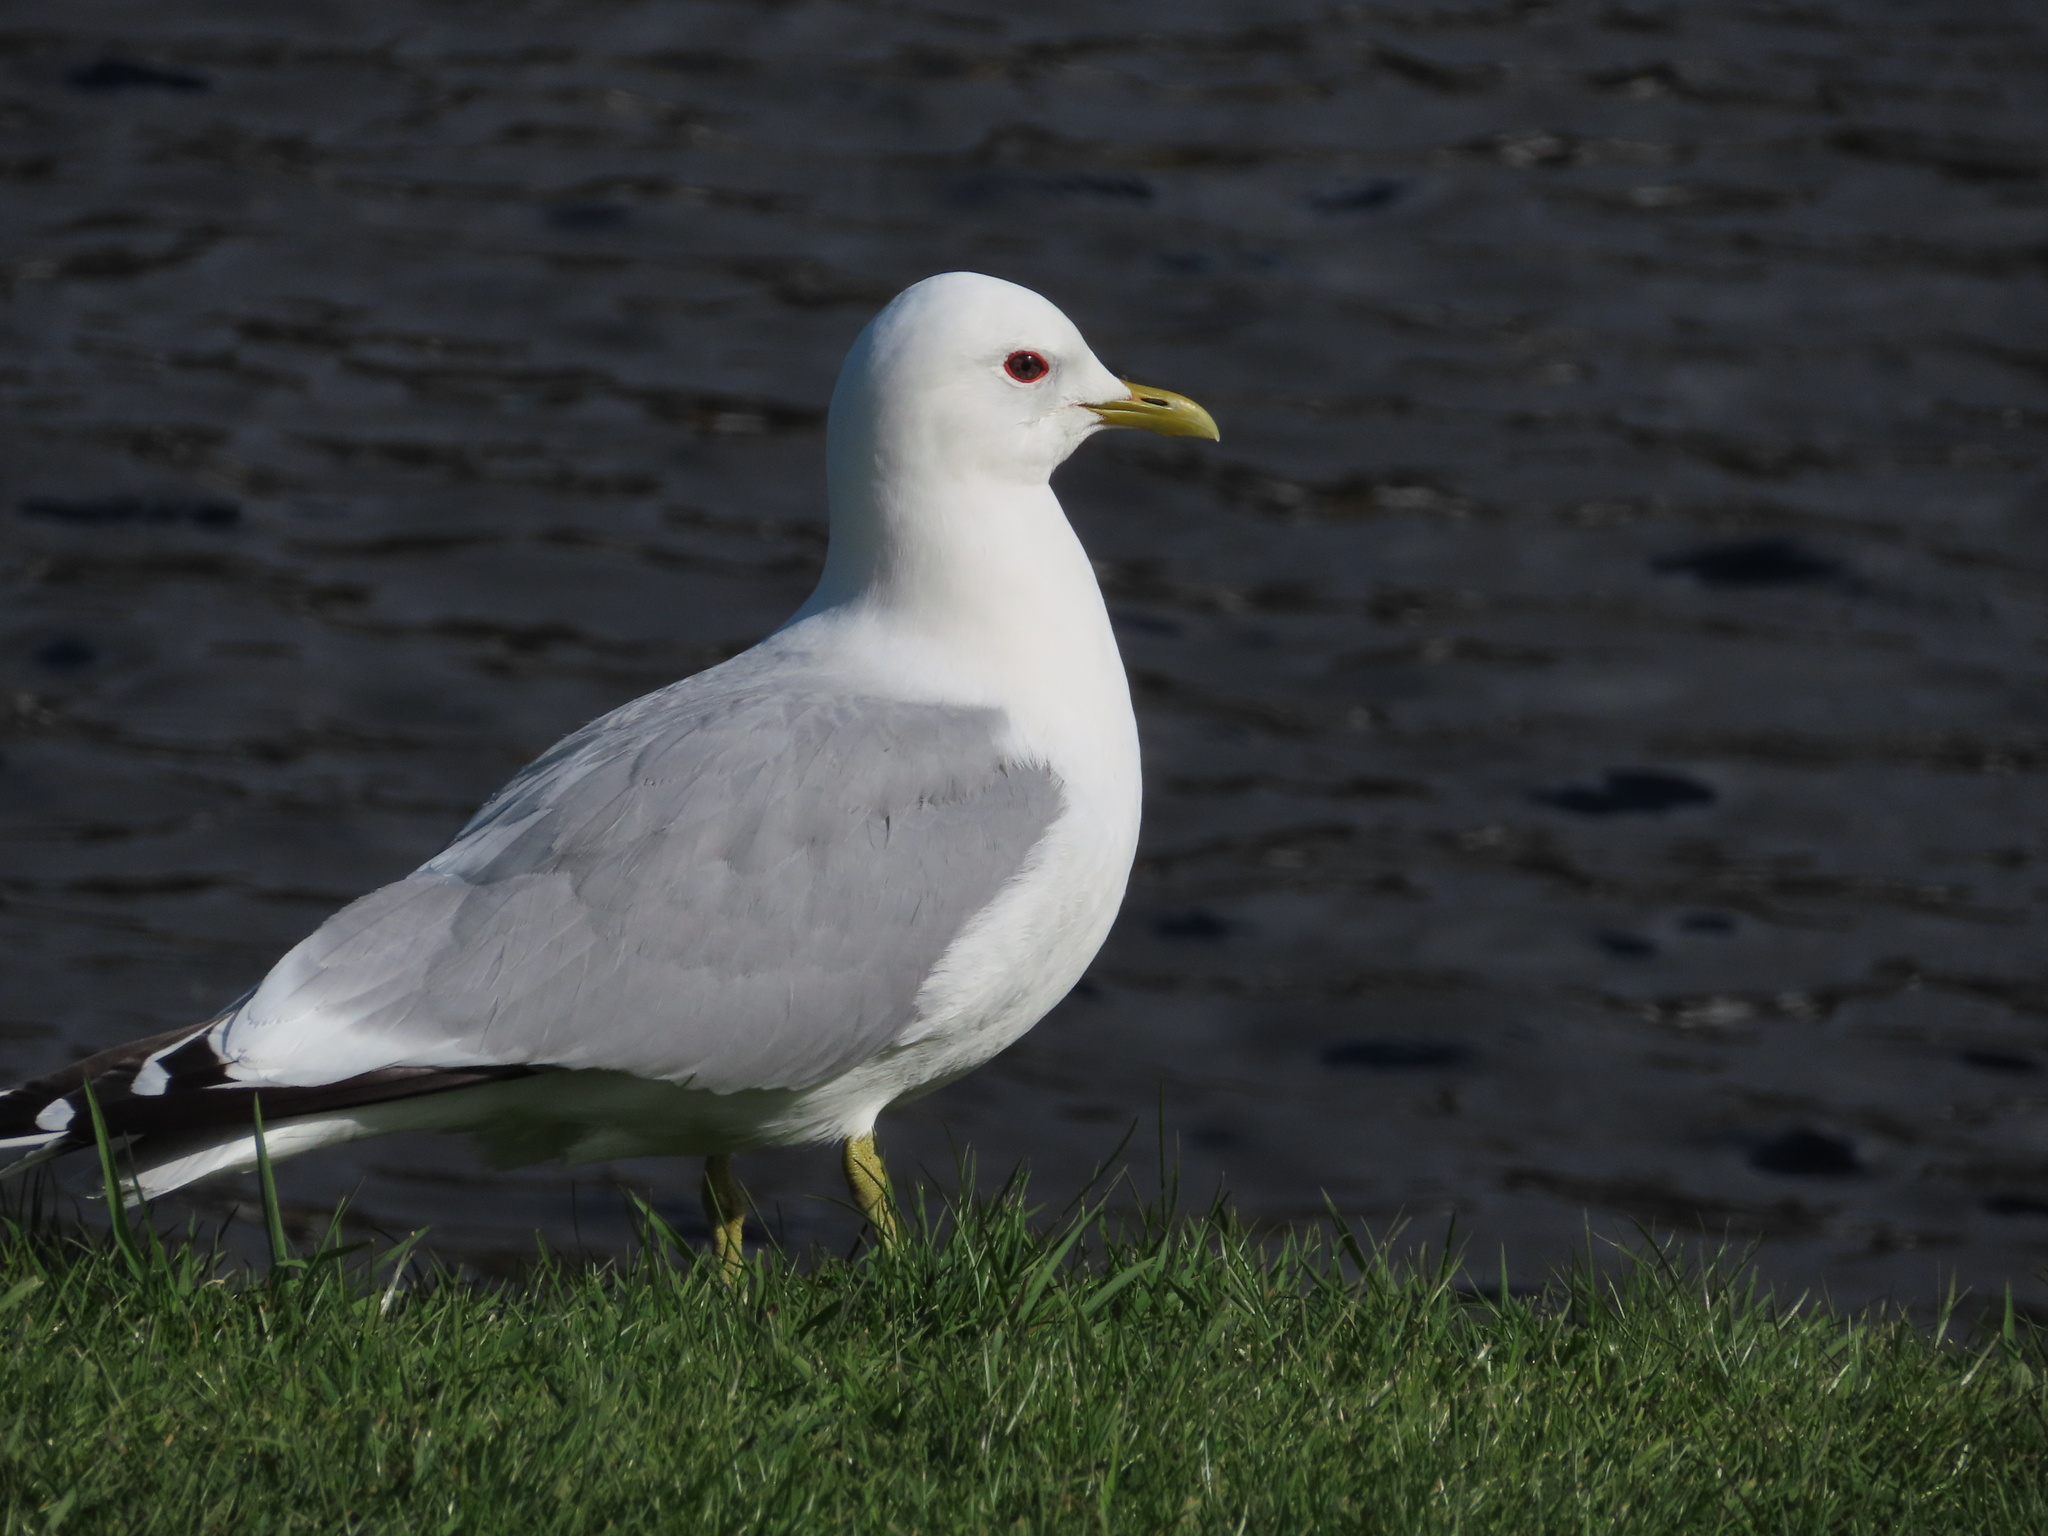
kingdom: Animalia
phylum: Chordata
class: Aves
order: Charadriiformes
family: Laridae
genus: Larus
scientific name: Larus canus
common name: Mew gull
